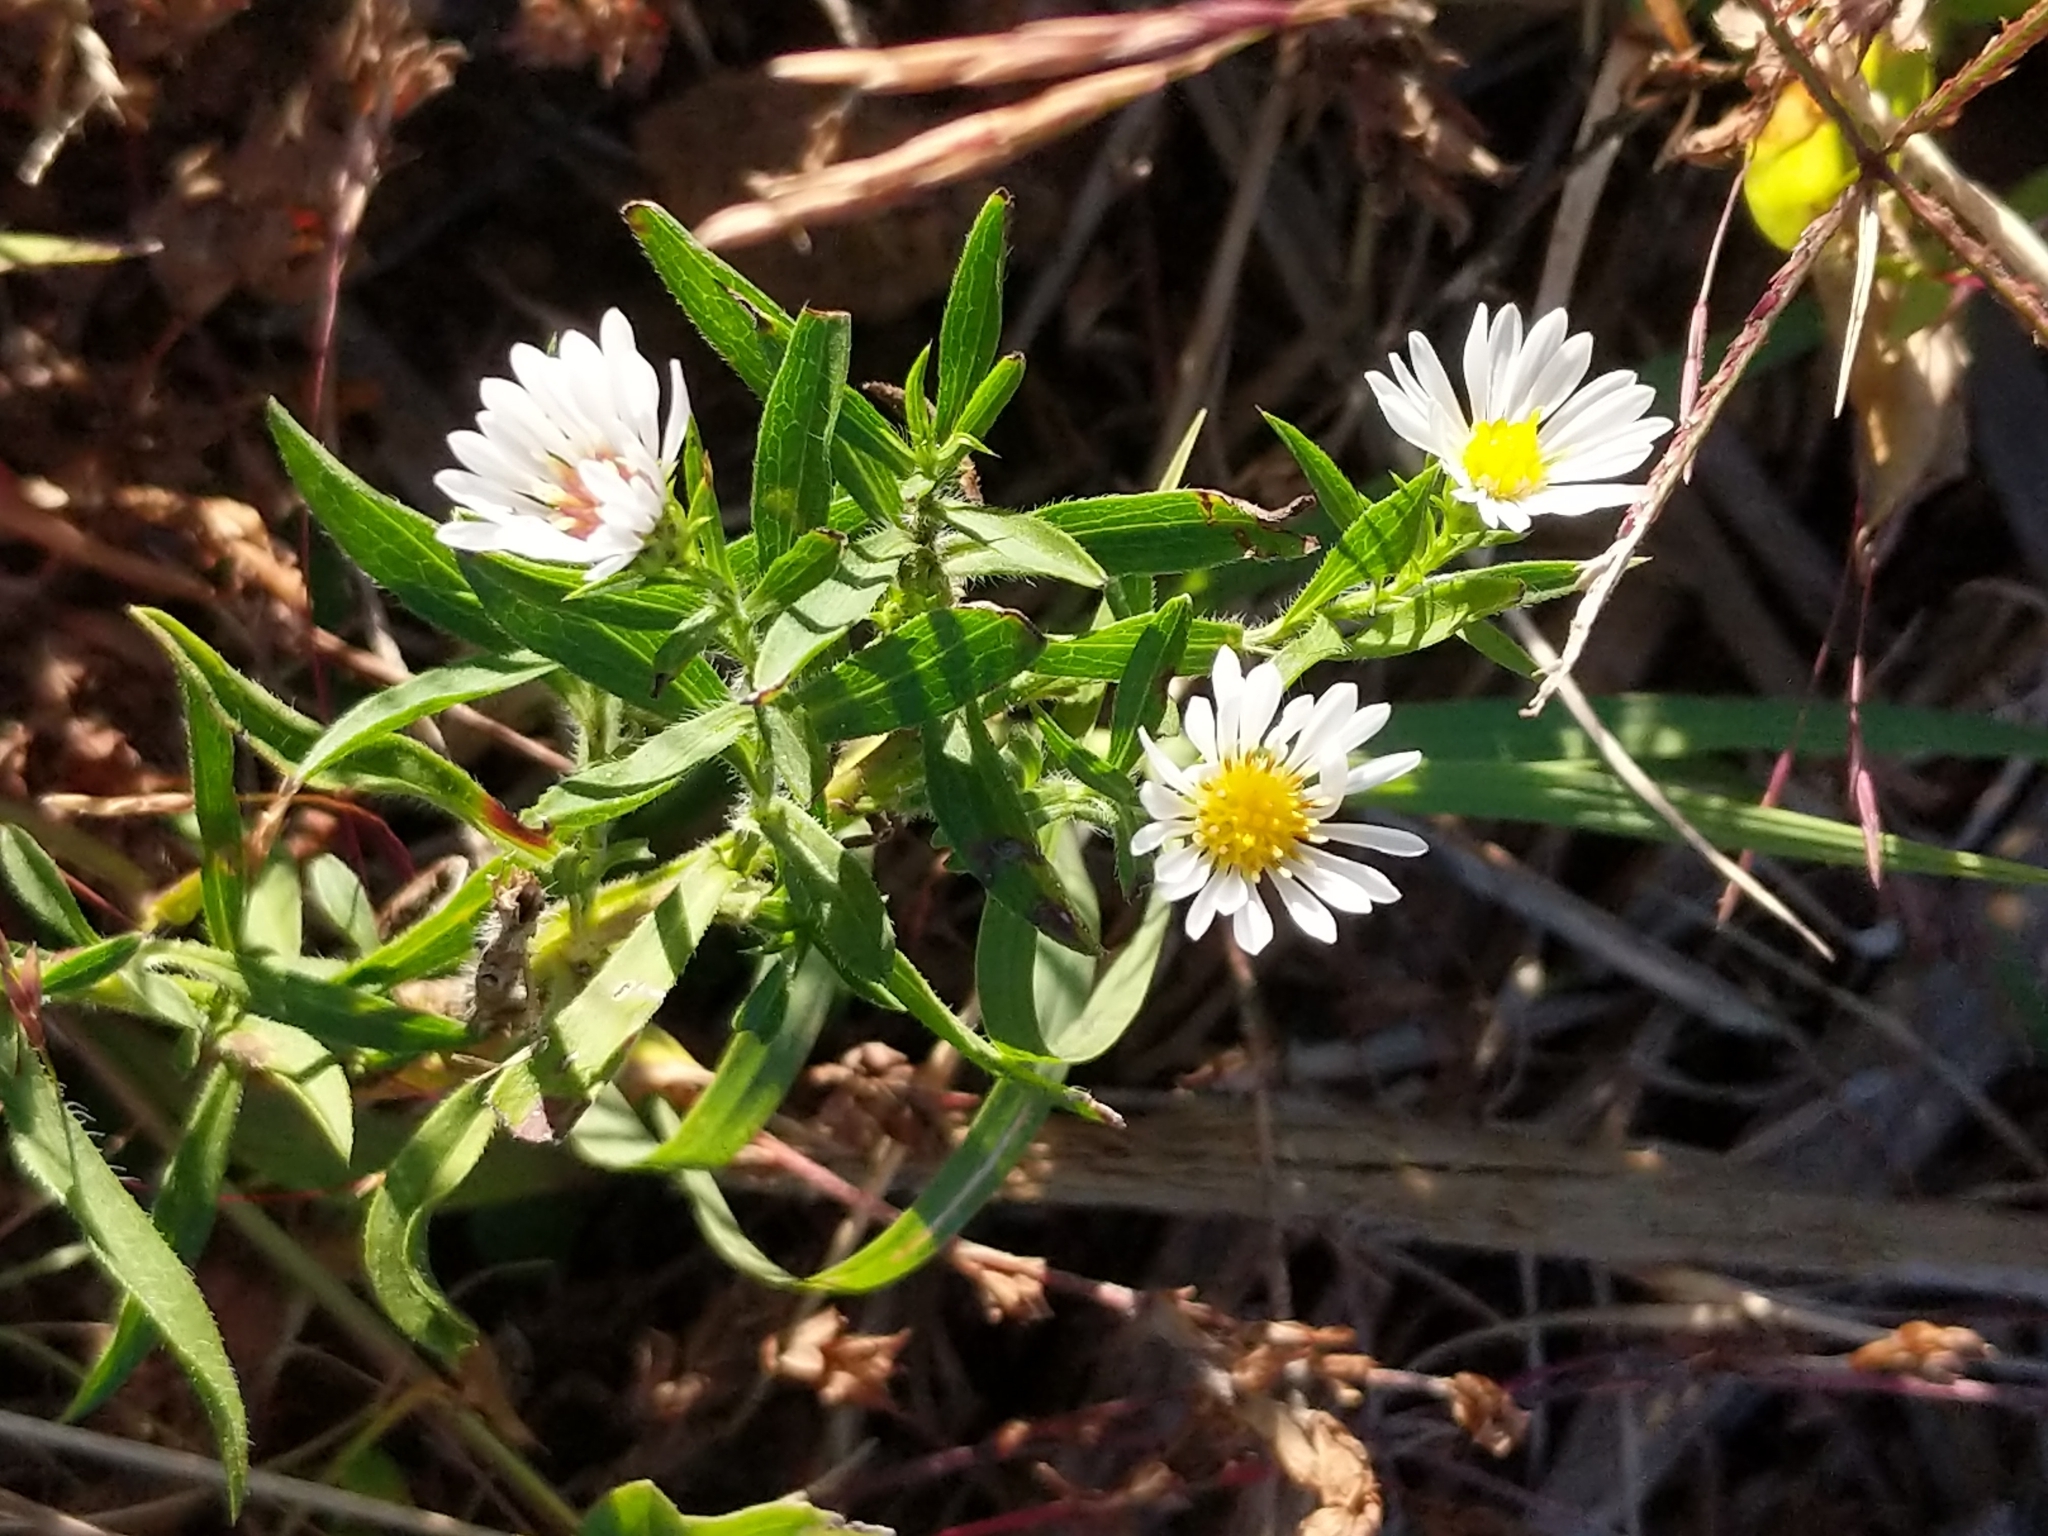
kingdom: Plantae
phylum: Tracheophyta
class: Magnoliopsida
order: Asterales
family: Asteraceae
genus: Symphyotrichum
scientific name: Symphyotrichum pilosum
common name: Awl aster
